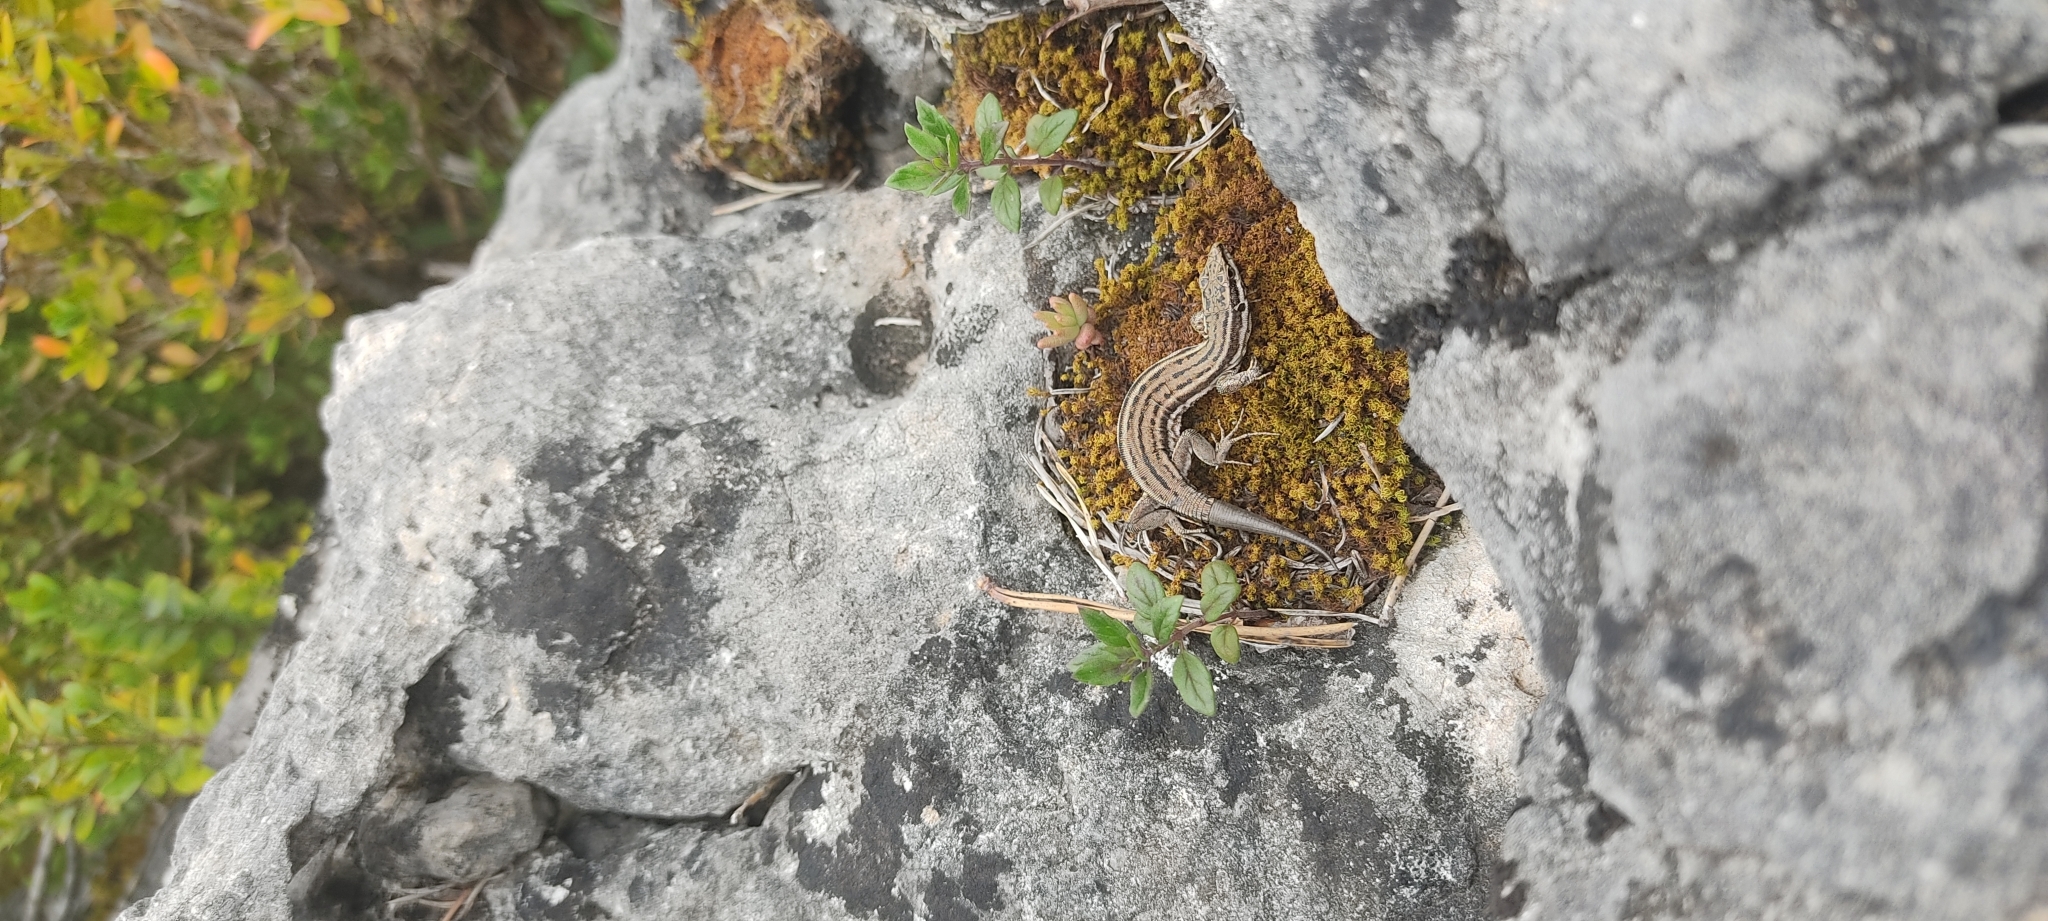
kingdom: Animalia
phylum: Chordata
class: Squamata
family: Lacertidae
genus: Podarcis
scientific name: Podarcis liolepis
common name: Catalonian wall lizard
